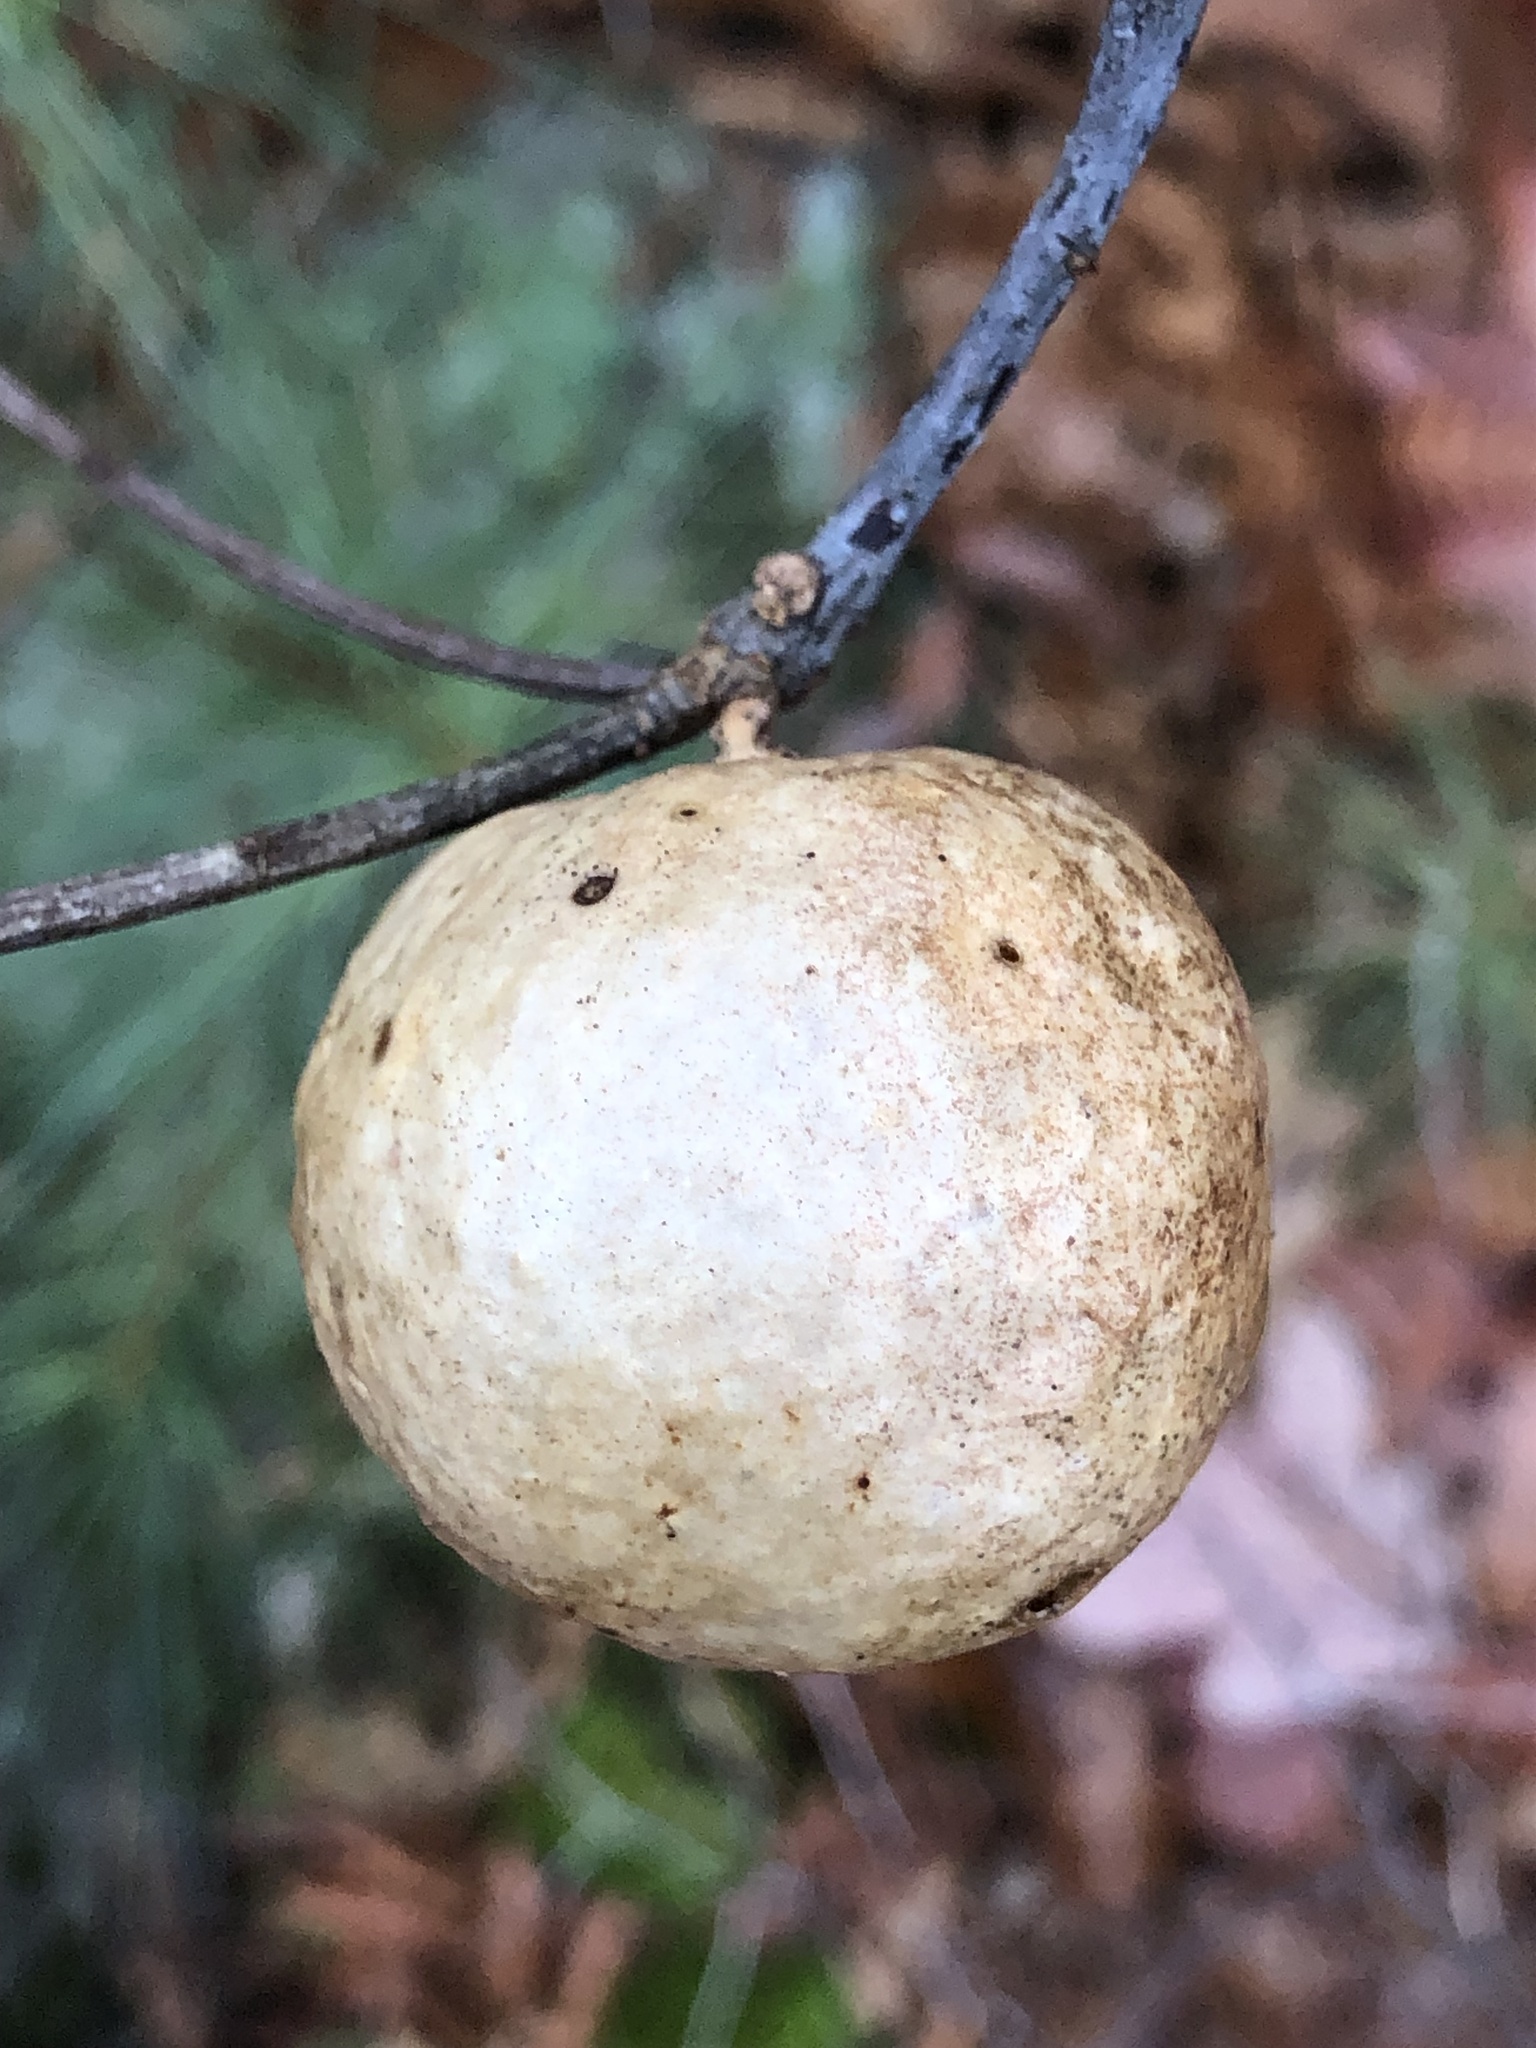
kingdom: Animalia
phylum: Arthropoda
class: Insecta
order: Hymenoptera
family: Cynipidae
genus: Amphibolips
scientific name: Amphibolips
